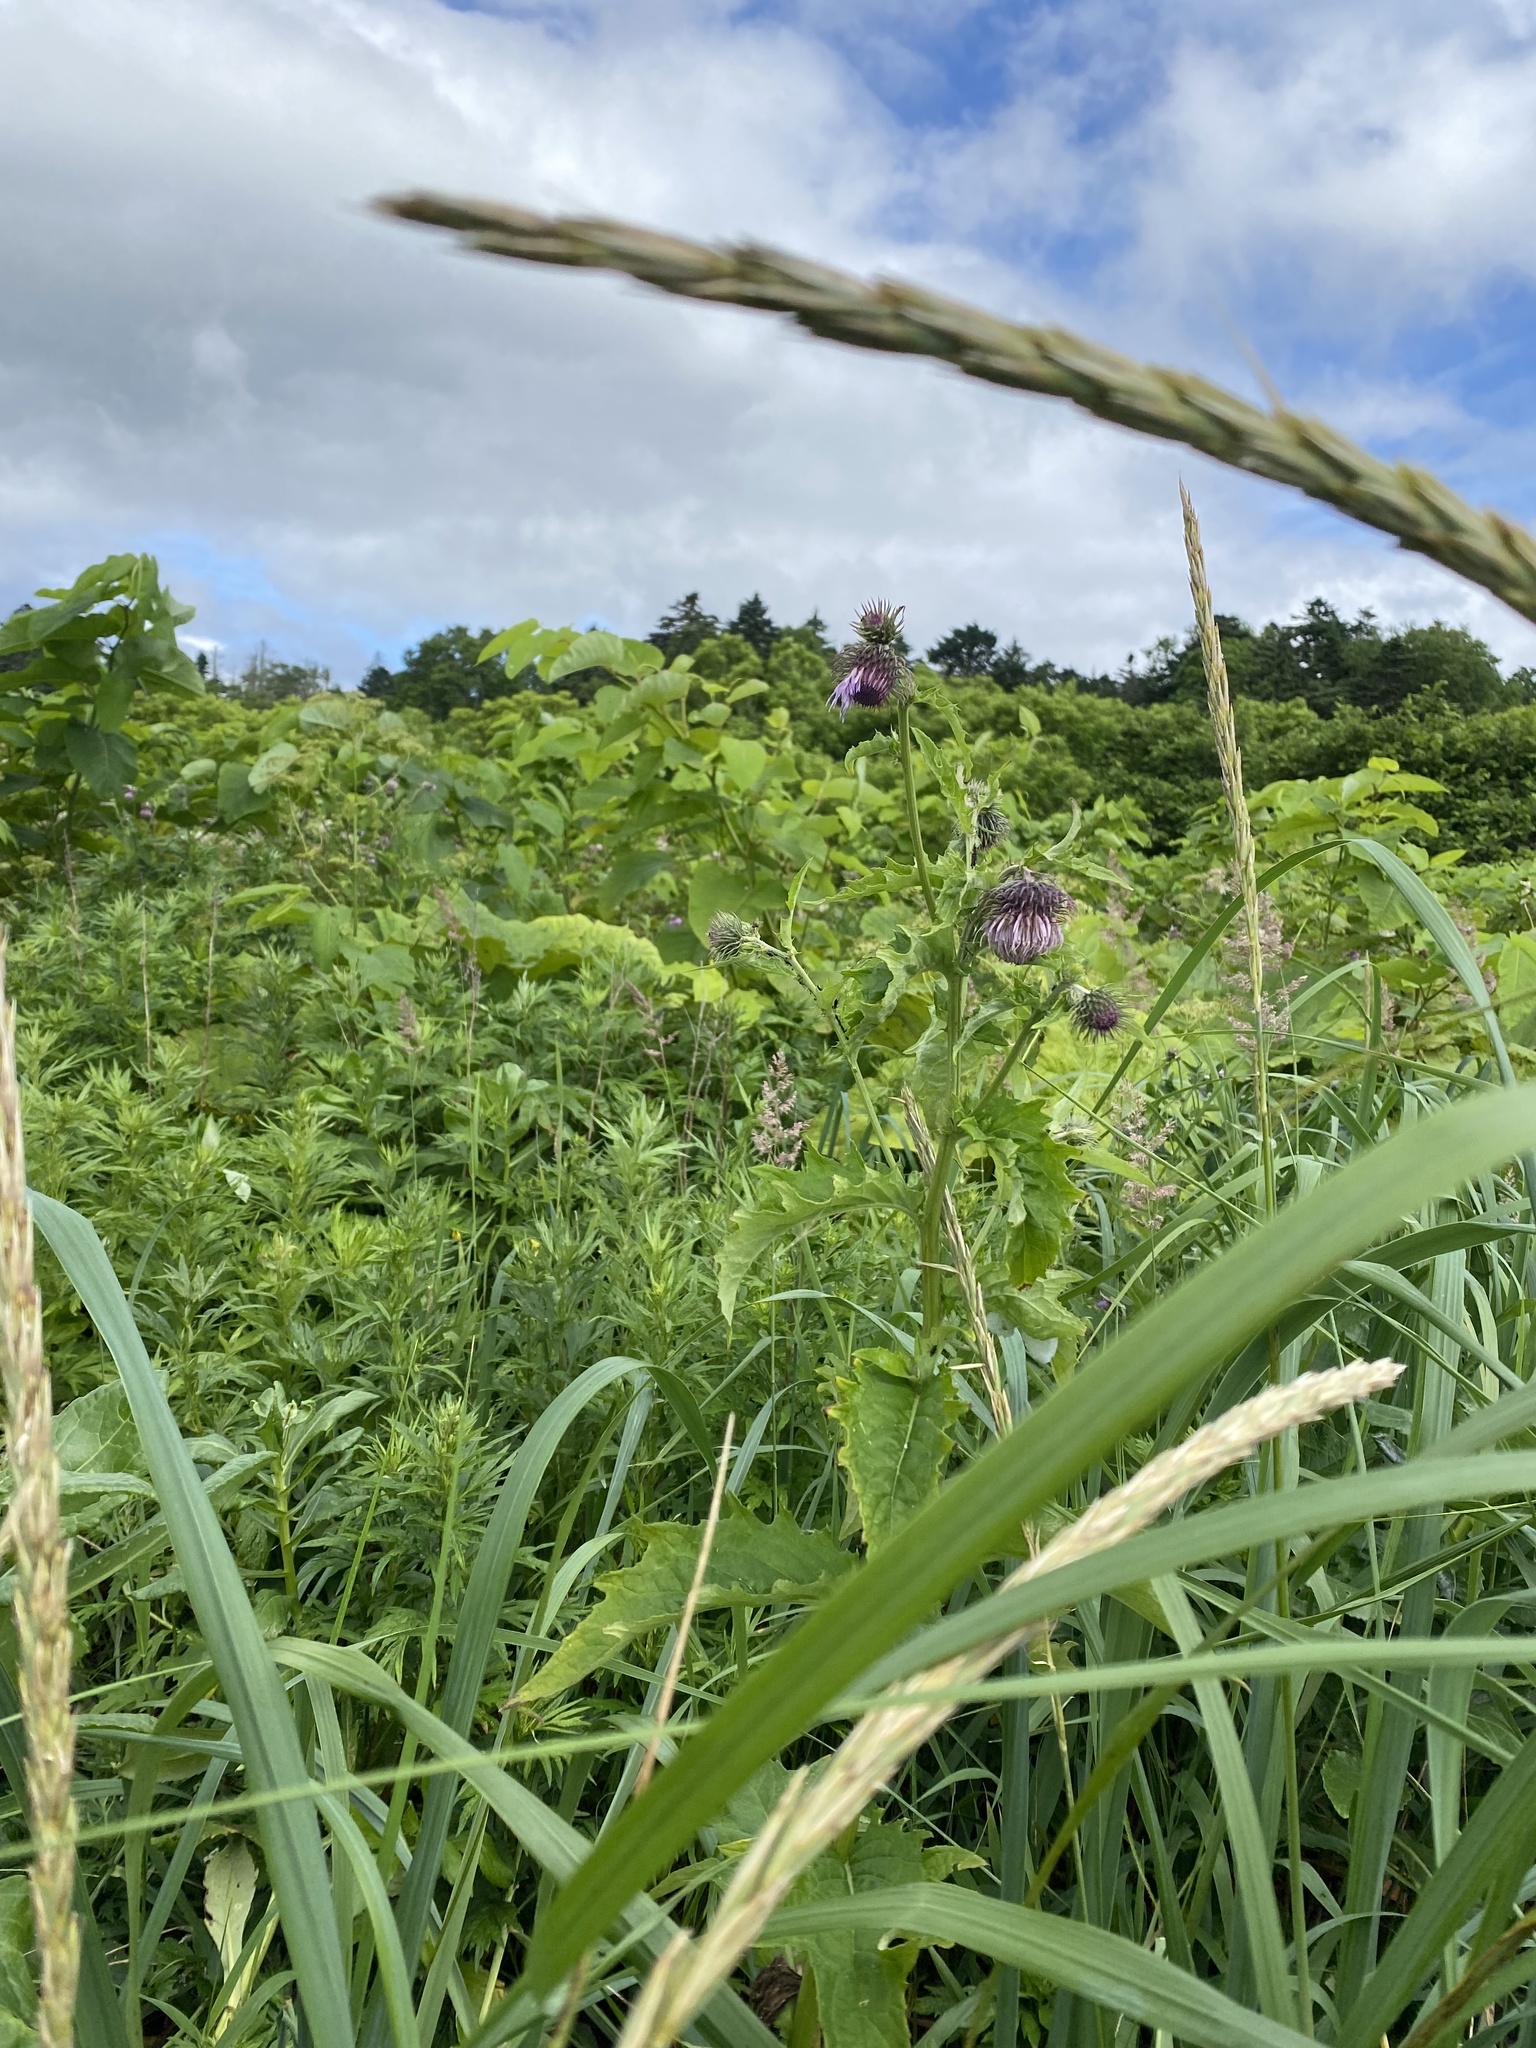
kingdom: Plantae
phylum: Tracheophyta
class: Magnoliopsida
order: Asterales
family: Asteraceae
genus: Cirsium
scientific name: Cirsium kamtschaticum
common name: Kamchatka thistle
